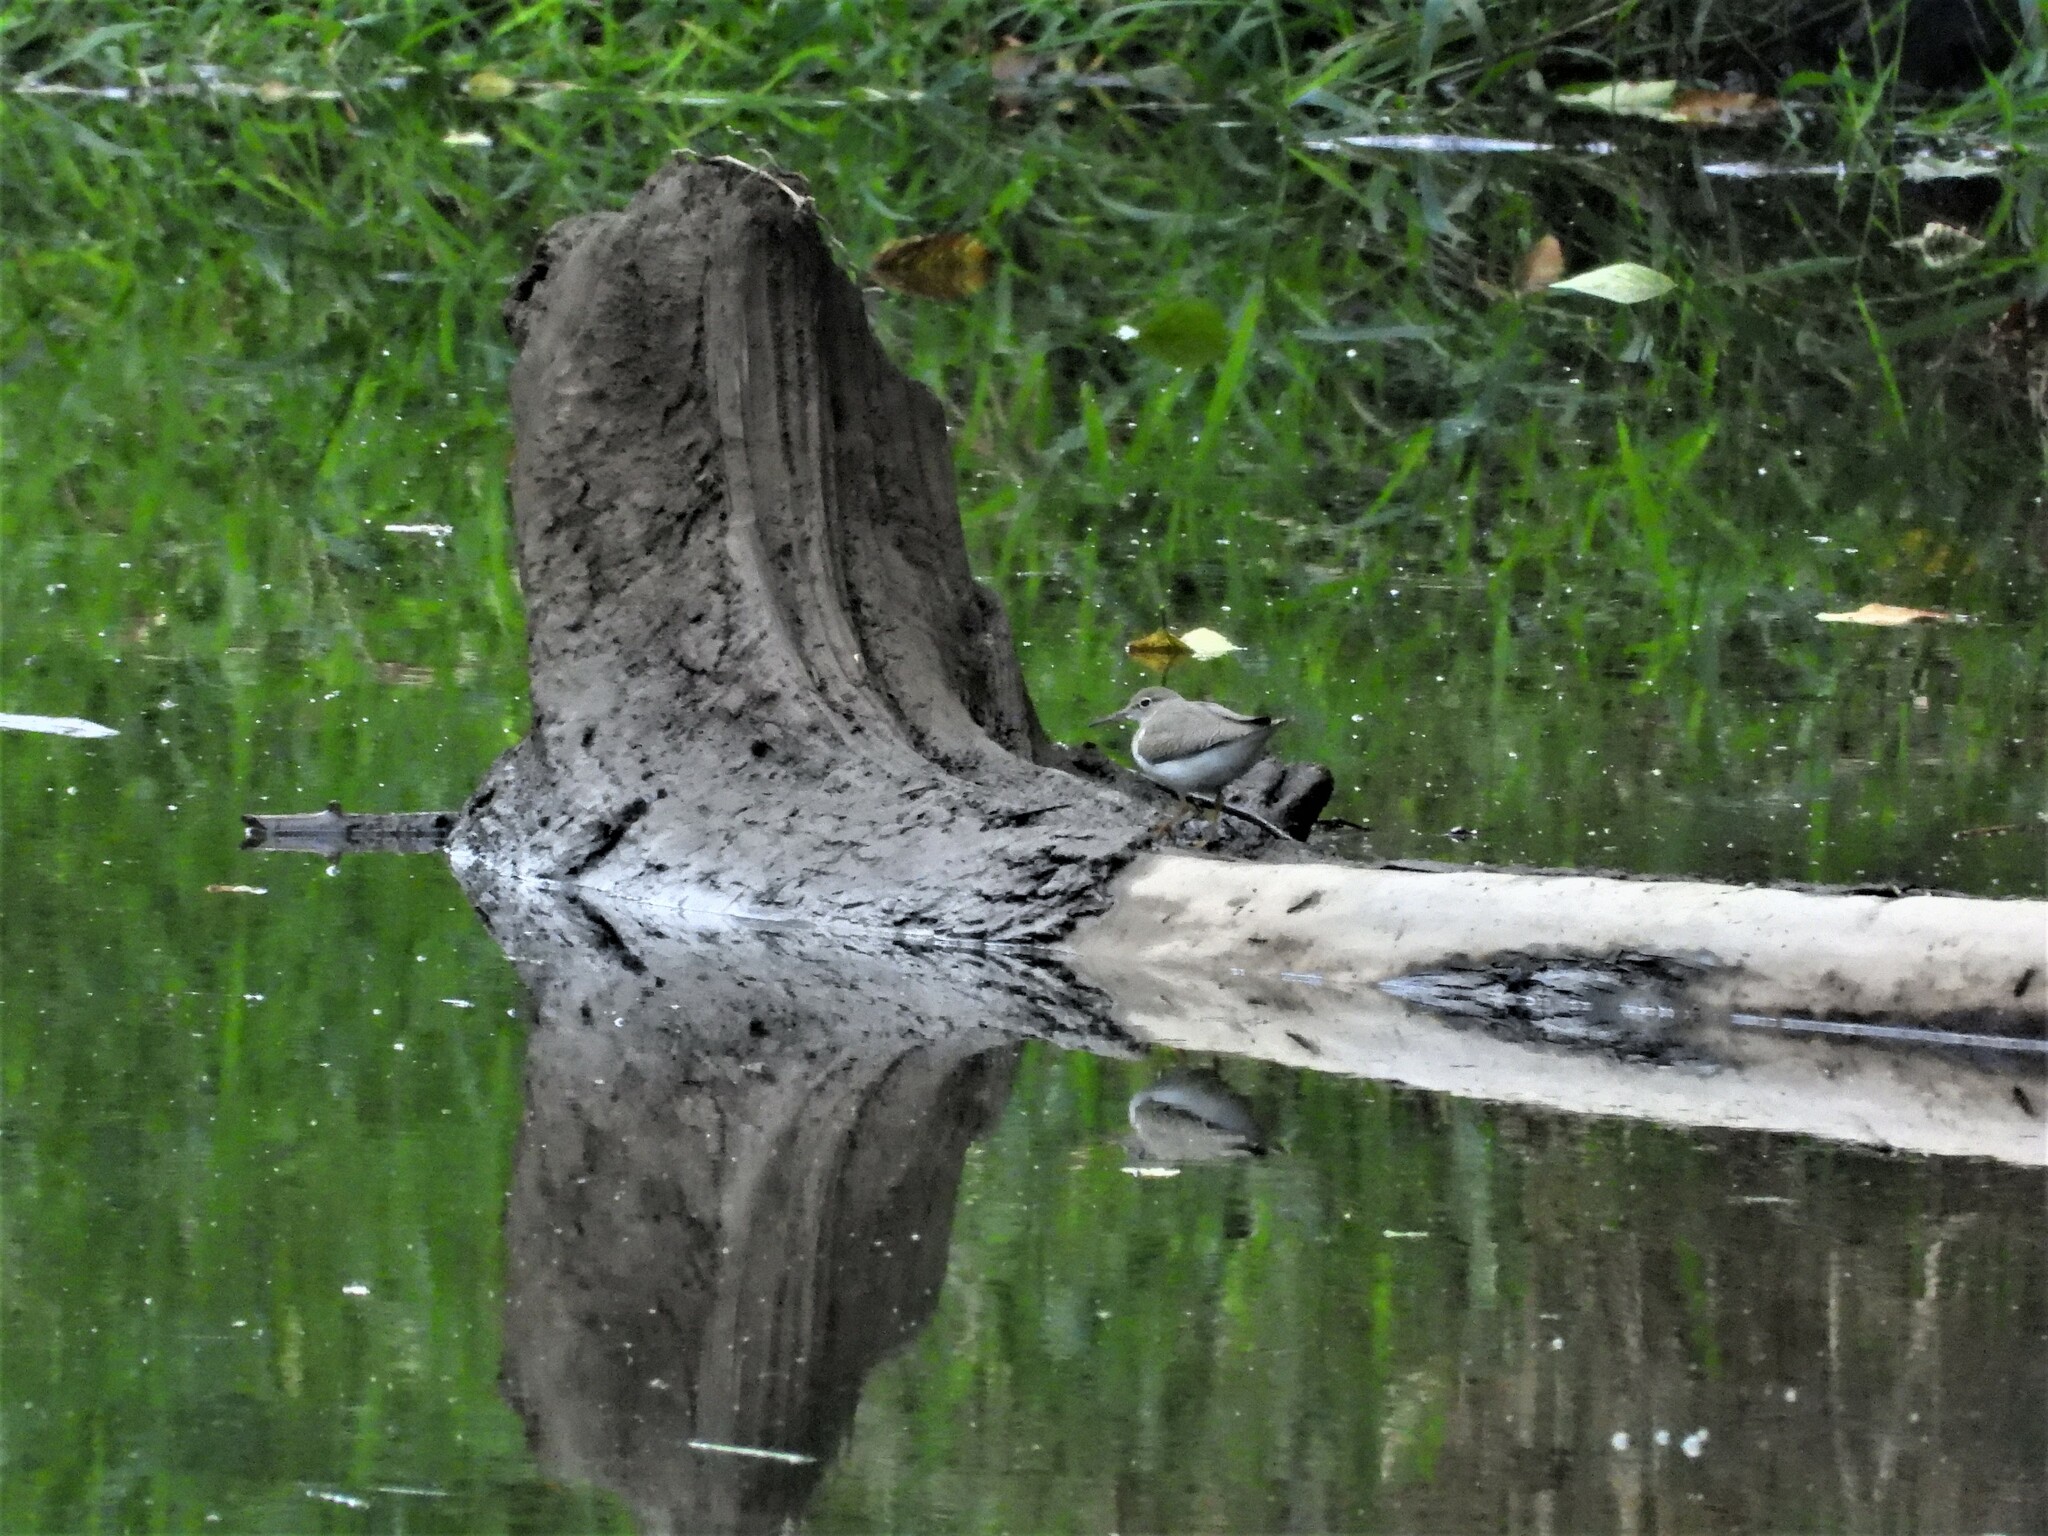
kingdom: Animalia
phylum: Chordata
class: Aves
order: Charadriiformes
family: Scolopacidae
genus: Actitis
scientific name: Actitis macularius
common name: Spotted sandpiper
